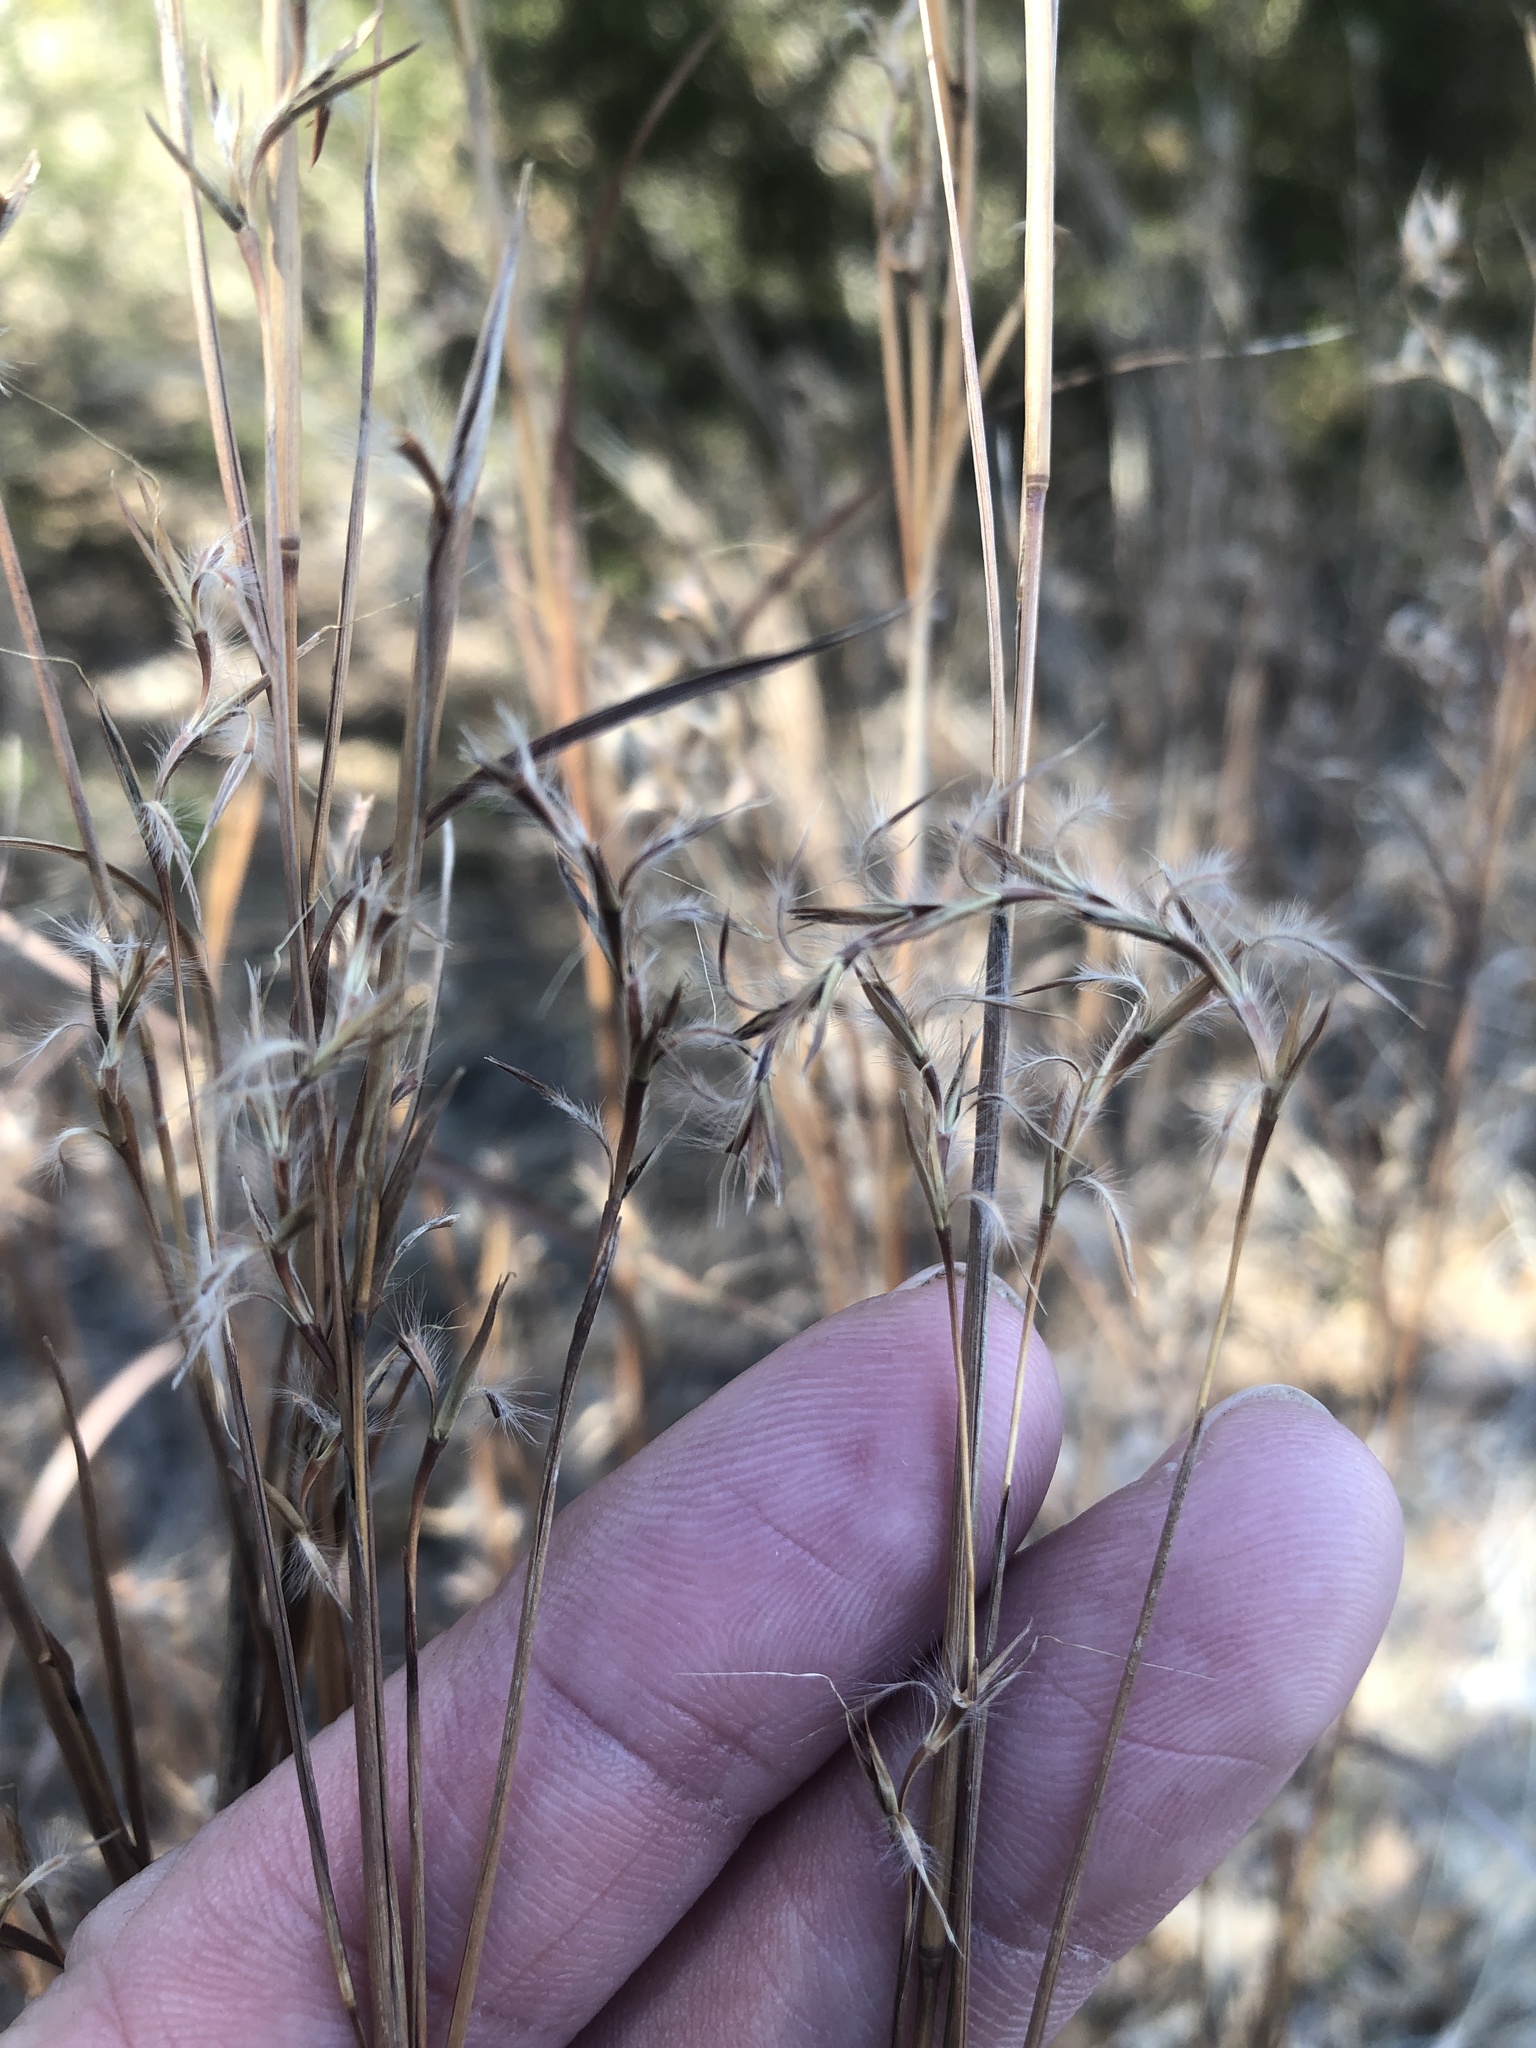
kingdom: Plantae
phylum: Tracheophyta
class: Liliopsida
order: Poales
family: Poaceae
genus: Schizachyrium
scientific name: Schizachyrium scoparium
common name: Little bluestem
